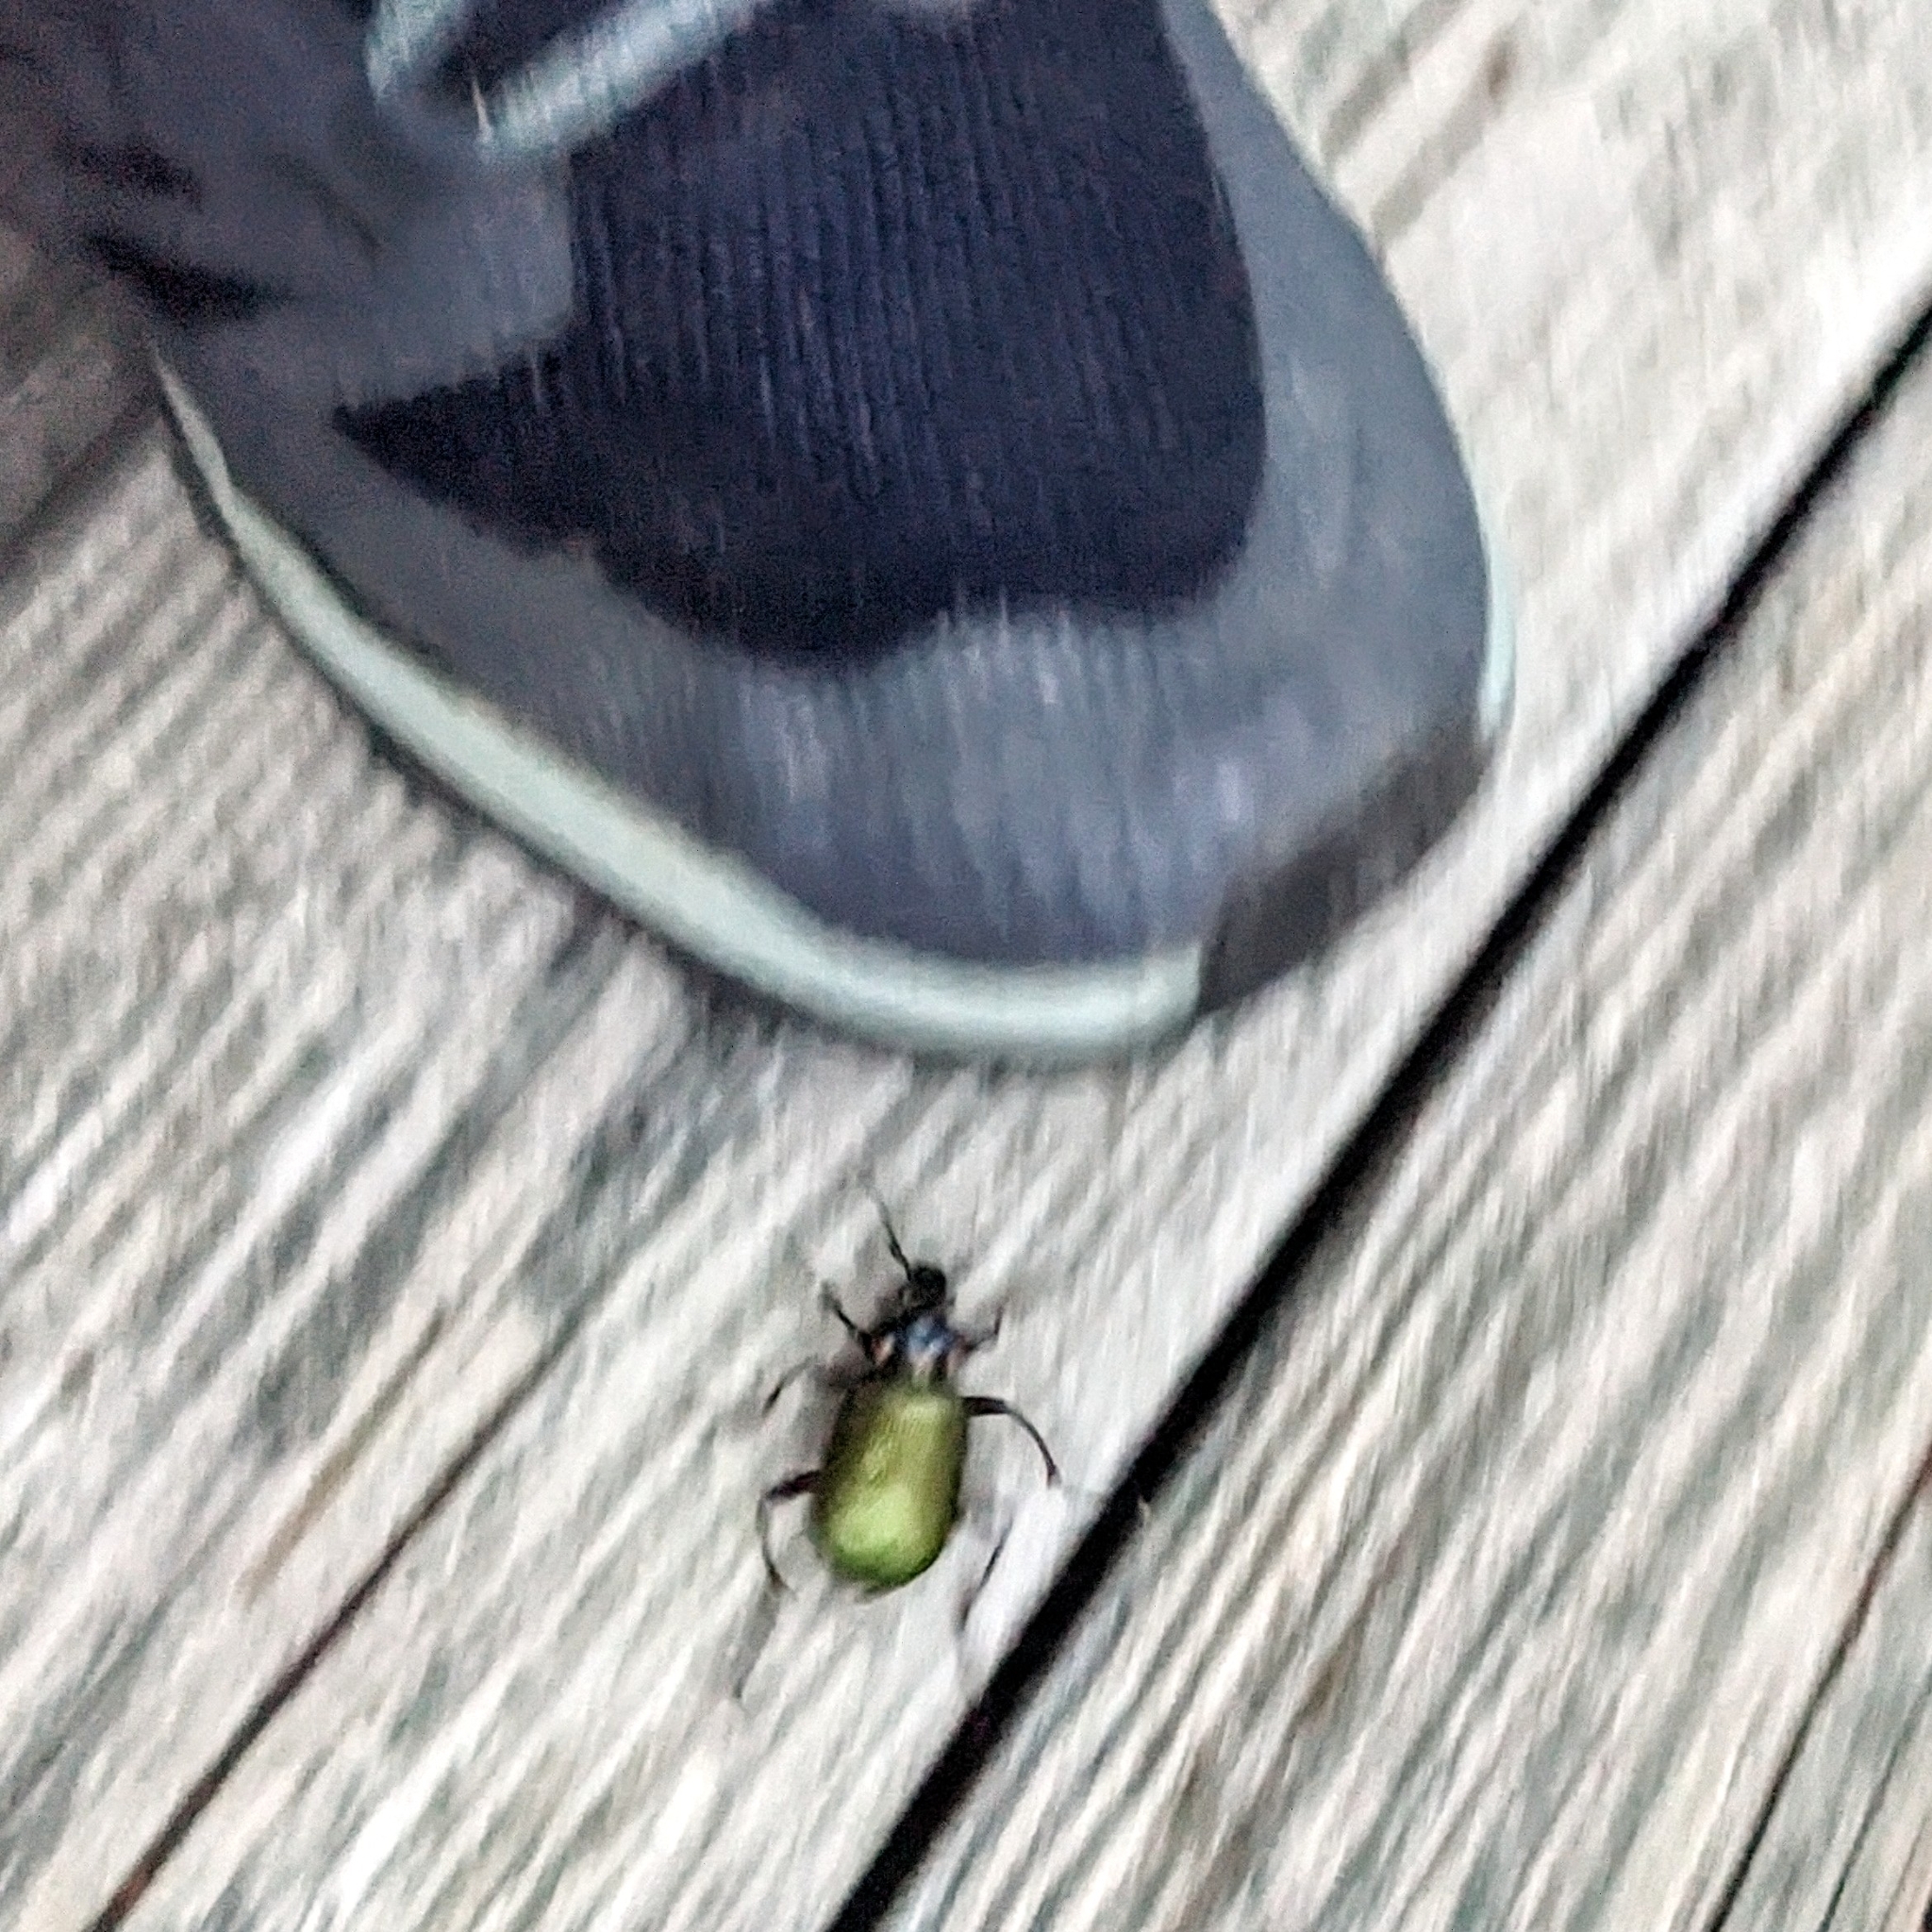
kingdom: Animalia
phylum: Arthropoda
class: Insecta
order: Coleoptera
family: Carabidae
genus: Calosoma
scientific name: Calosoma scrutator
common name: Fiery searcher beetle
